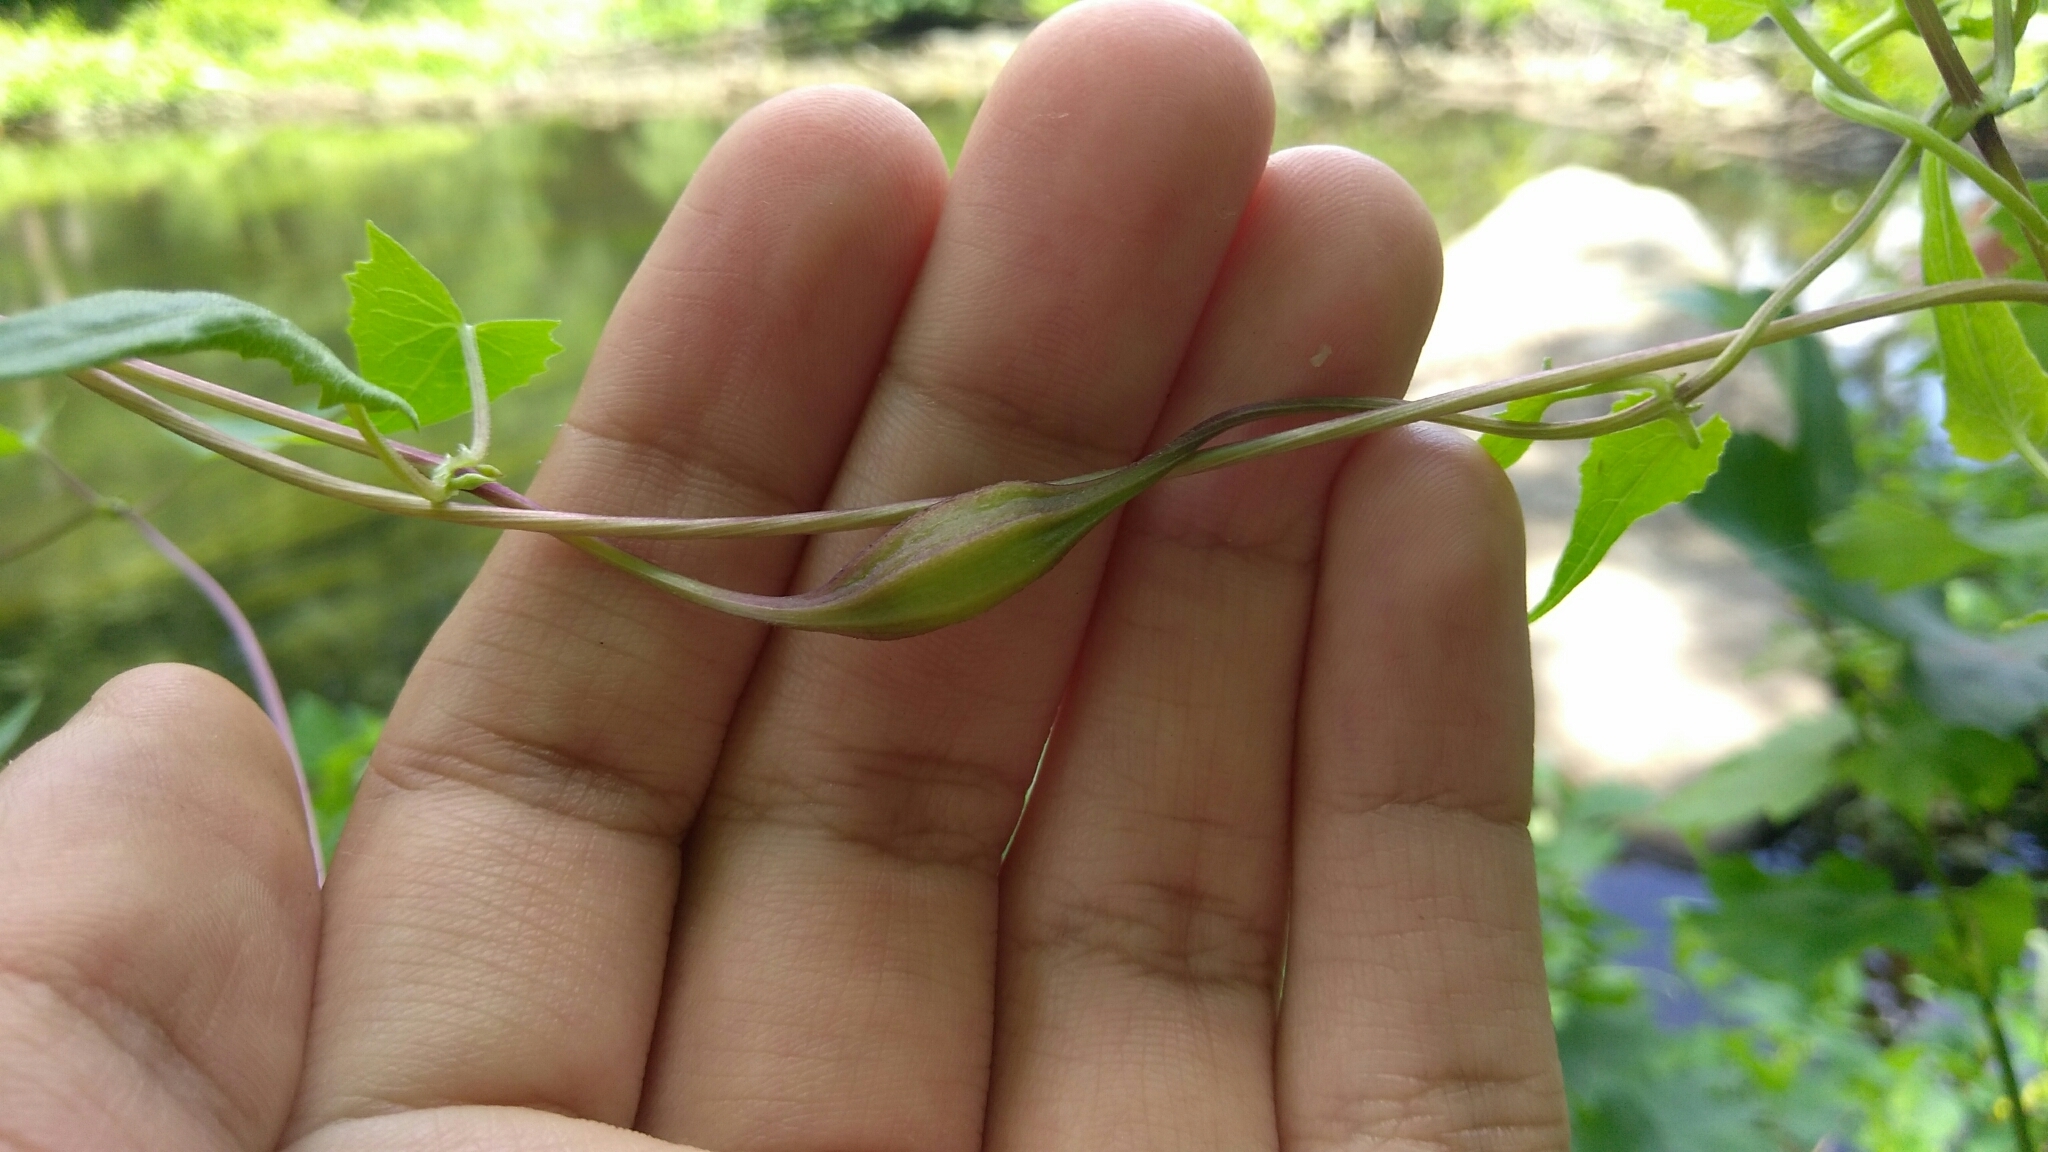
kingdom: Animalia
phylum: Arthropoda
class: Insecta
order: Diptera
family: Cecidomyiidae
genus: Neolasioptera
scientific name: Neolasioptera convolvuli
